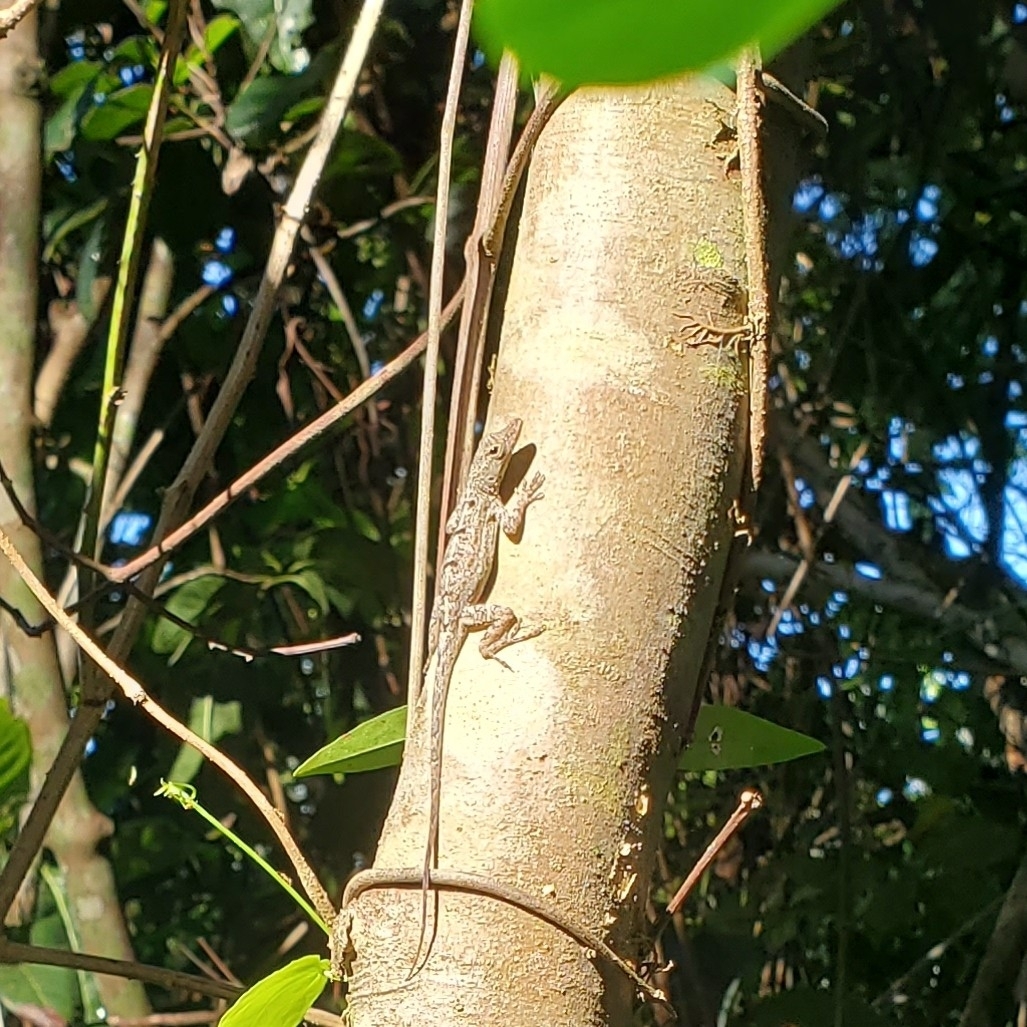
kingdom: Animalia
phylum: Chordata
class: Squamata
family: Dactyloidae
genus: Anolis
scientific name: Anolis stratulus
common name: Banded anole
